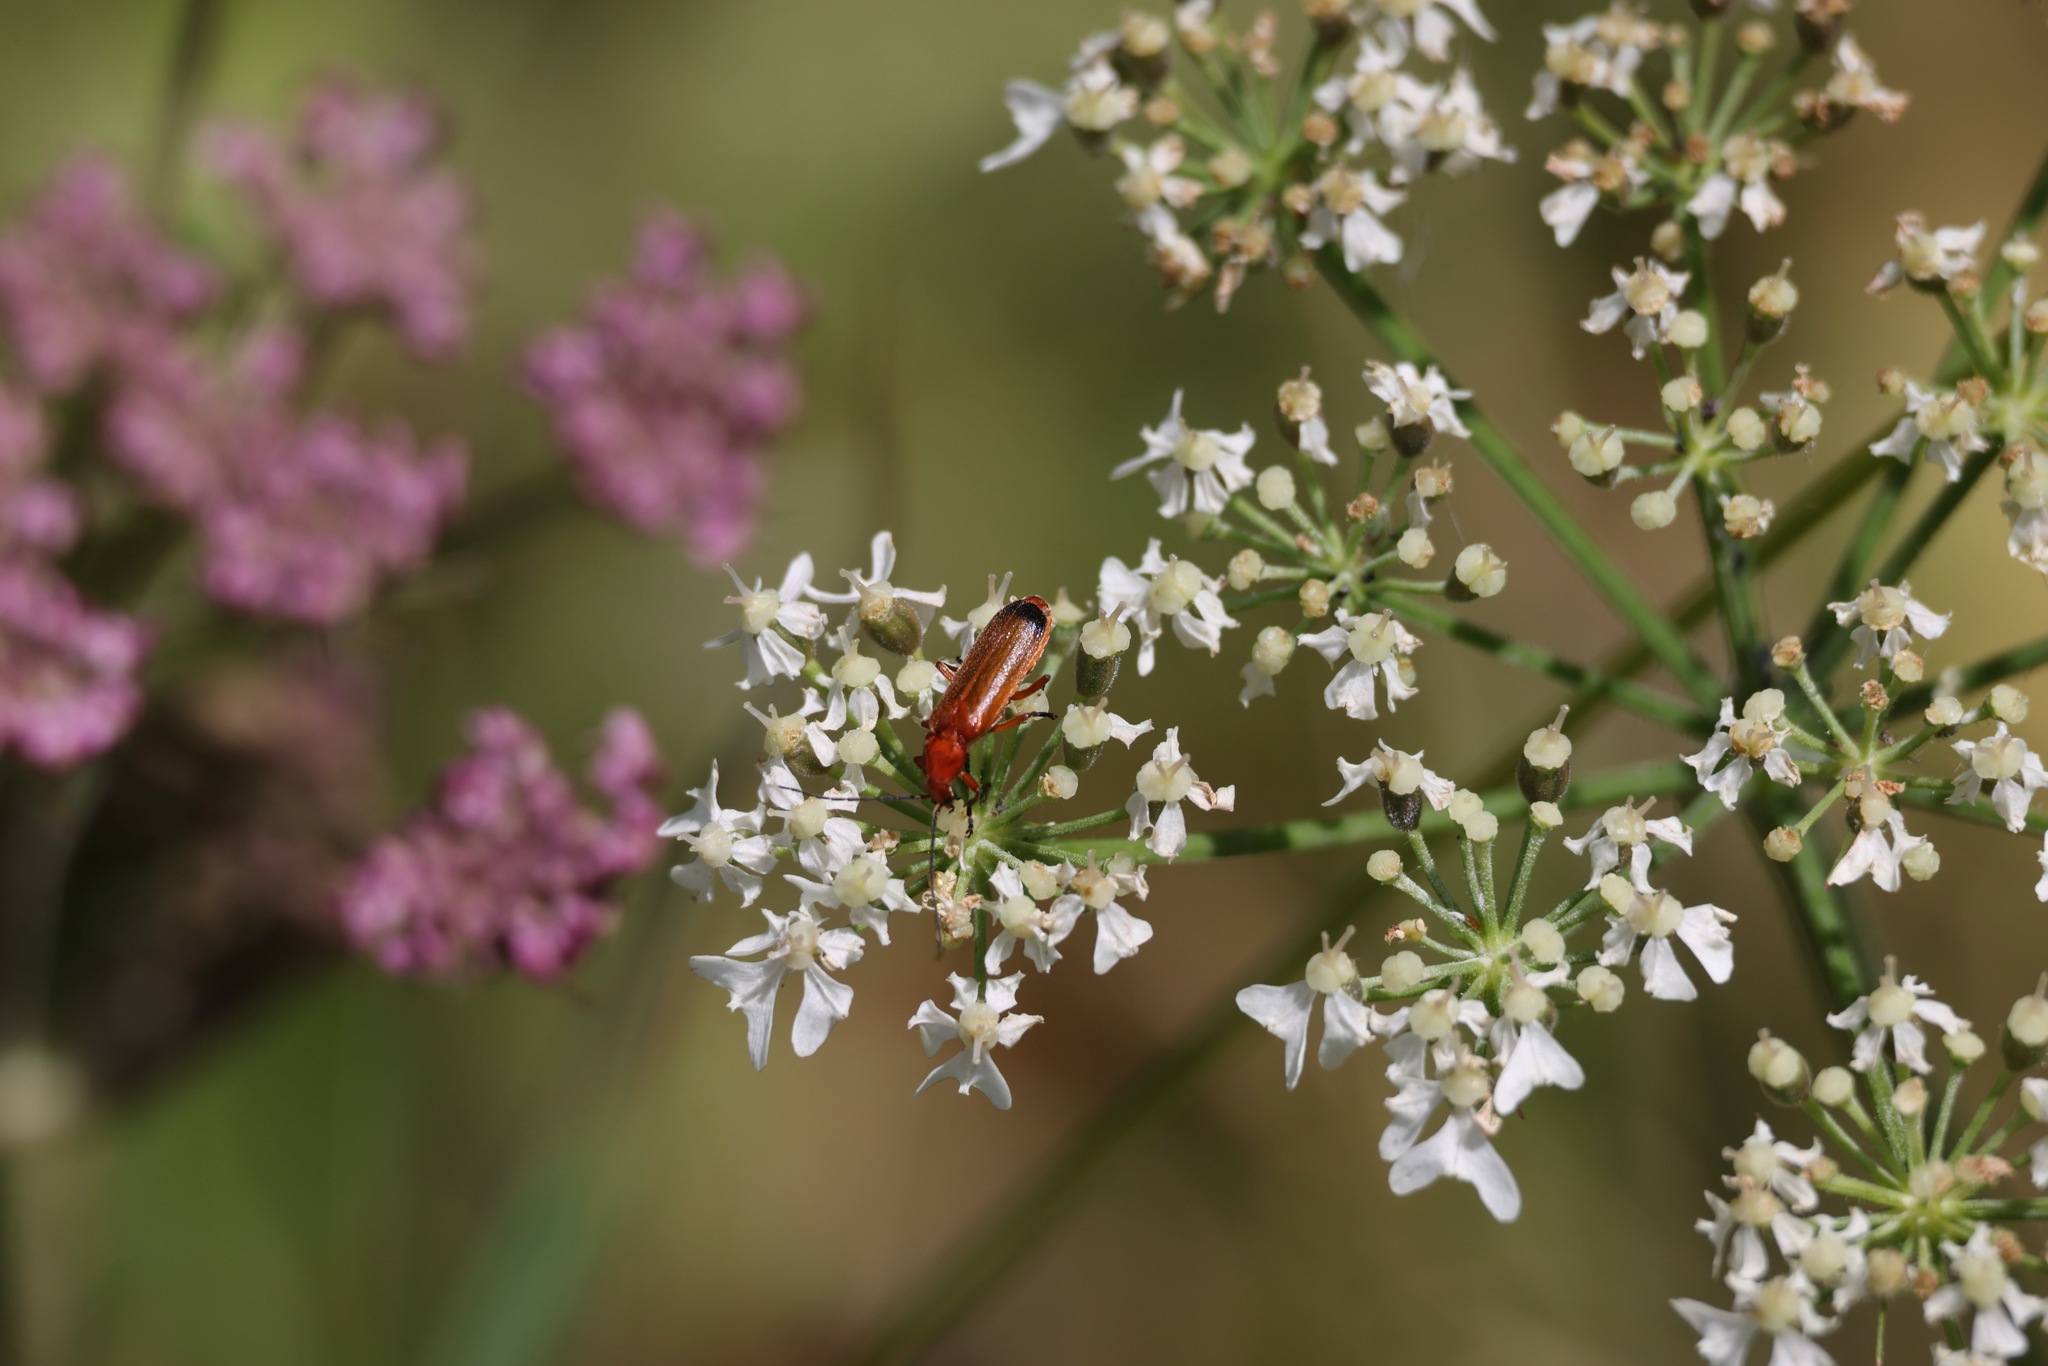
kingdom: Animalia
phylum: Arthropoda
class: Insecta
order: Coleoptera
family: Cantharidae
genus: Rhagonycha
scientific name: Rhagonycha fulva
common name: Common red soldier beetle
